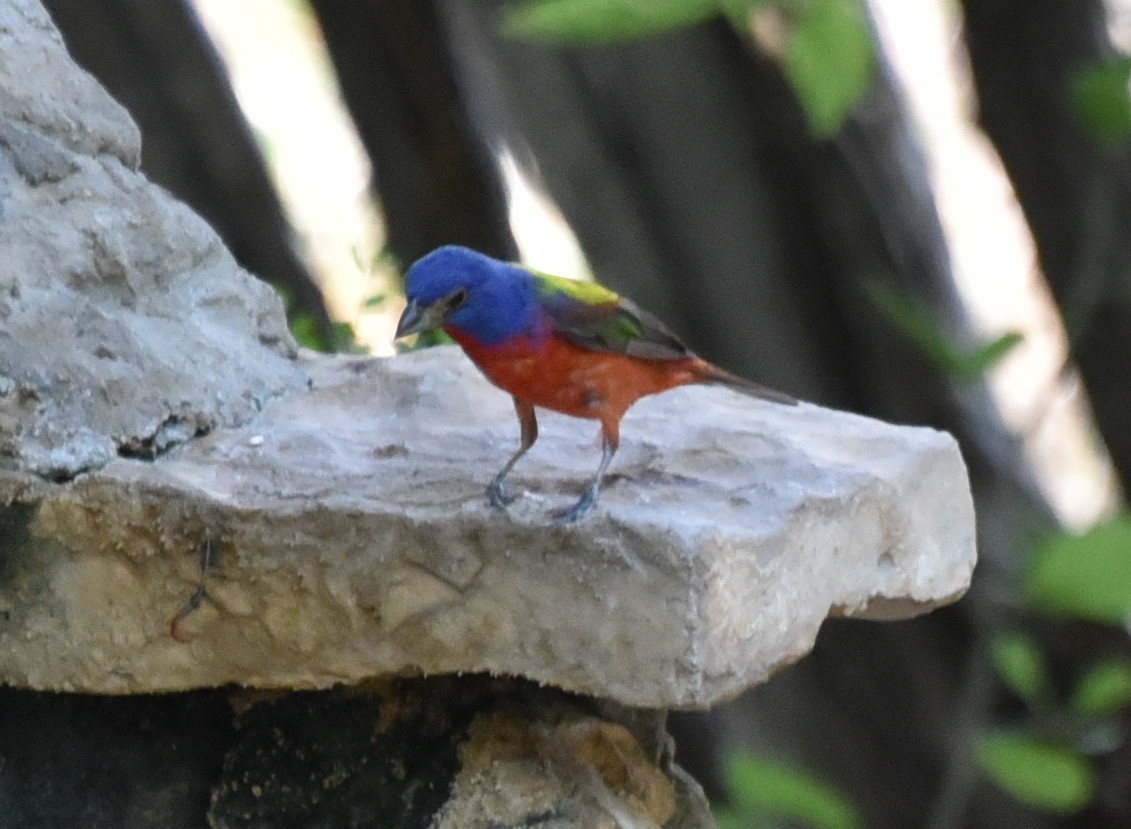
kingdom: Animalia
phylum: Chordata
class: Aves
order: Passeriformes
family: Cardinalidae
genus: Passerina
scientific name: Passerina ciris
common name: Painted bunting
